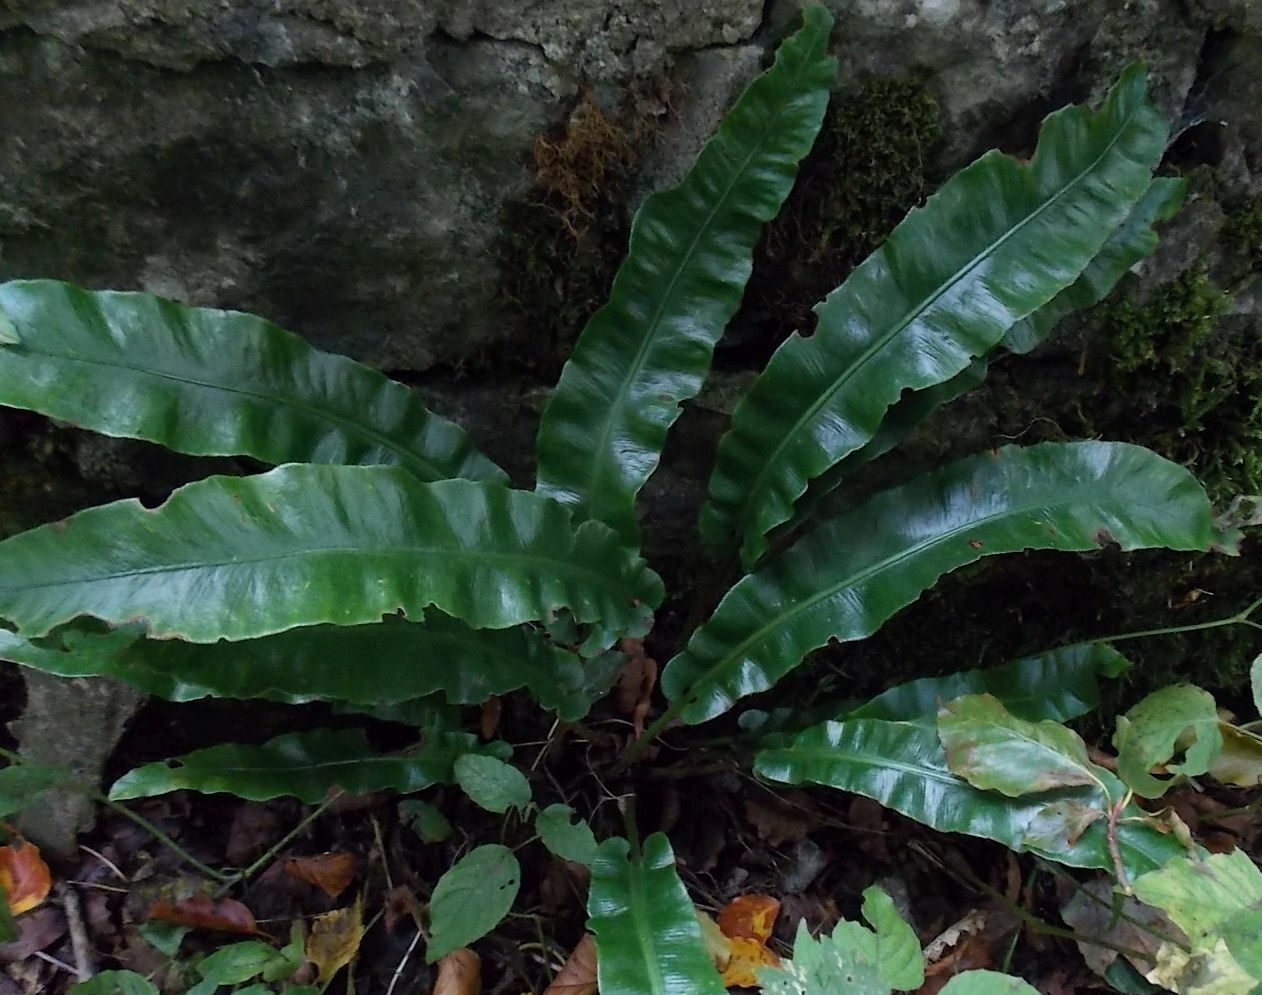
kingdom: Plantae
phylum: Tracheophyta
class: Polypodiopsida
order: Polypodiales
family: Aspleniaceae
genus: Asplenium
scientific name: Asplenium scolopendrium
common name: Hart's-tongue fern
